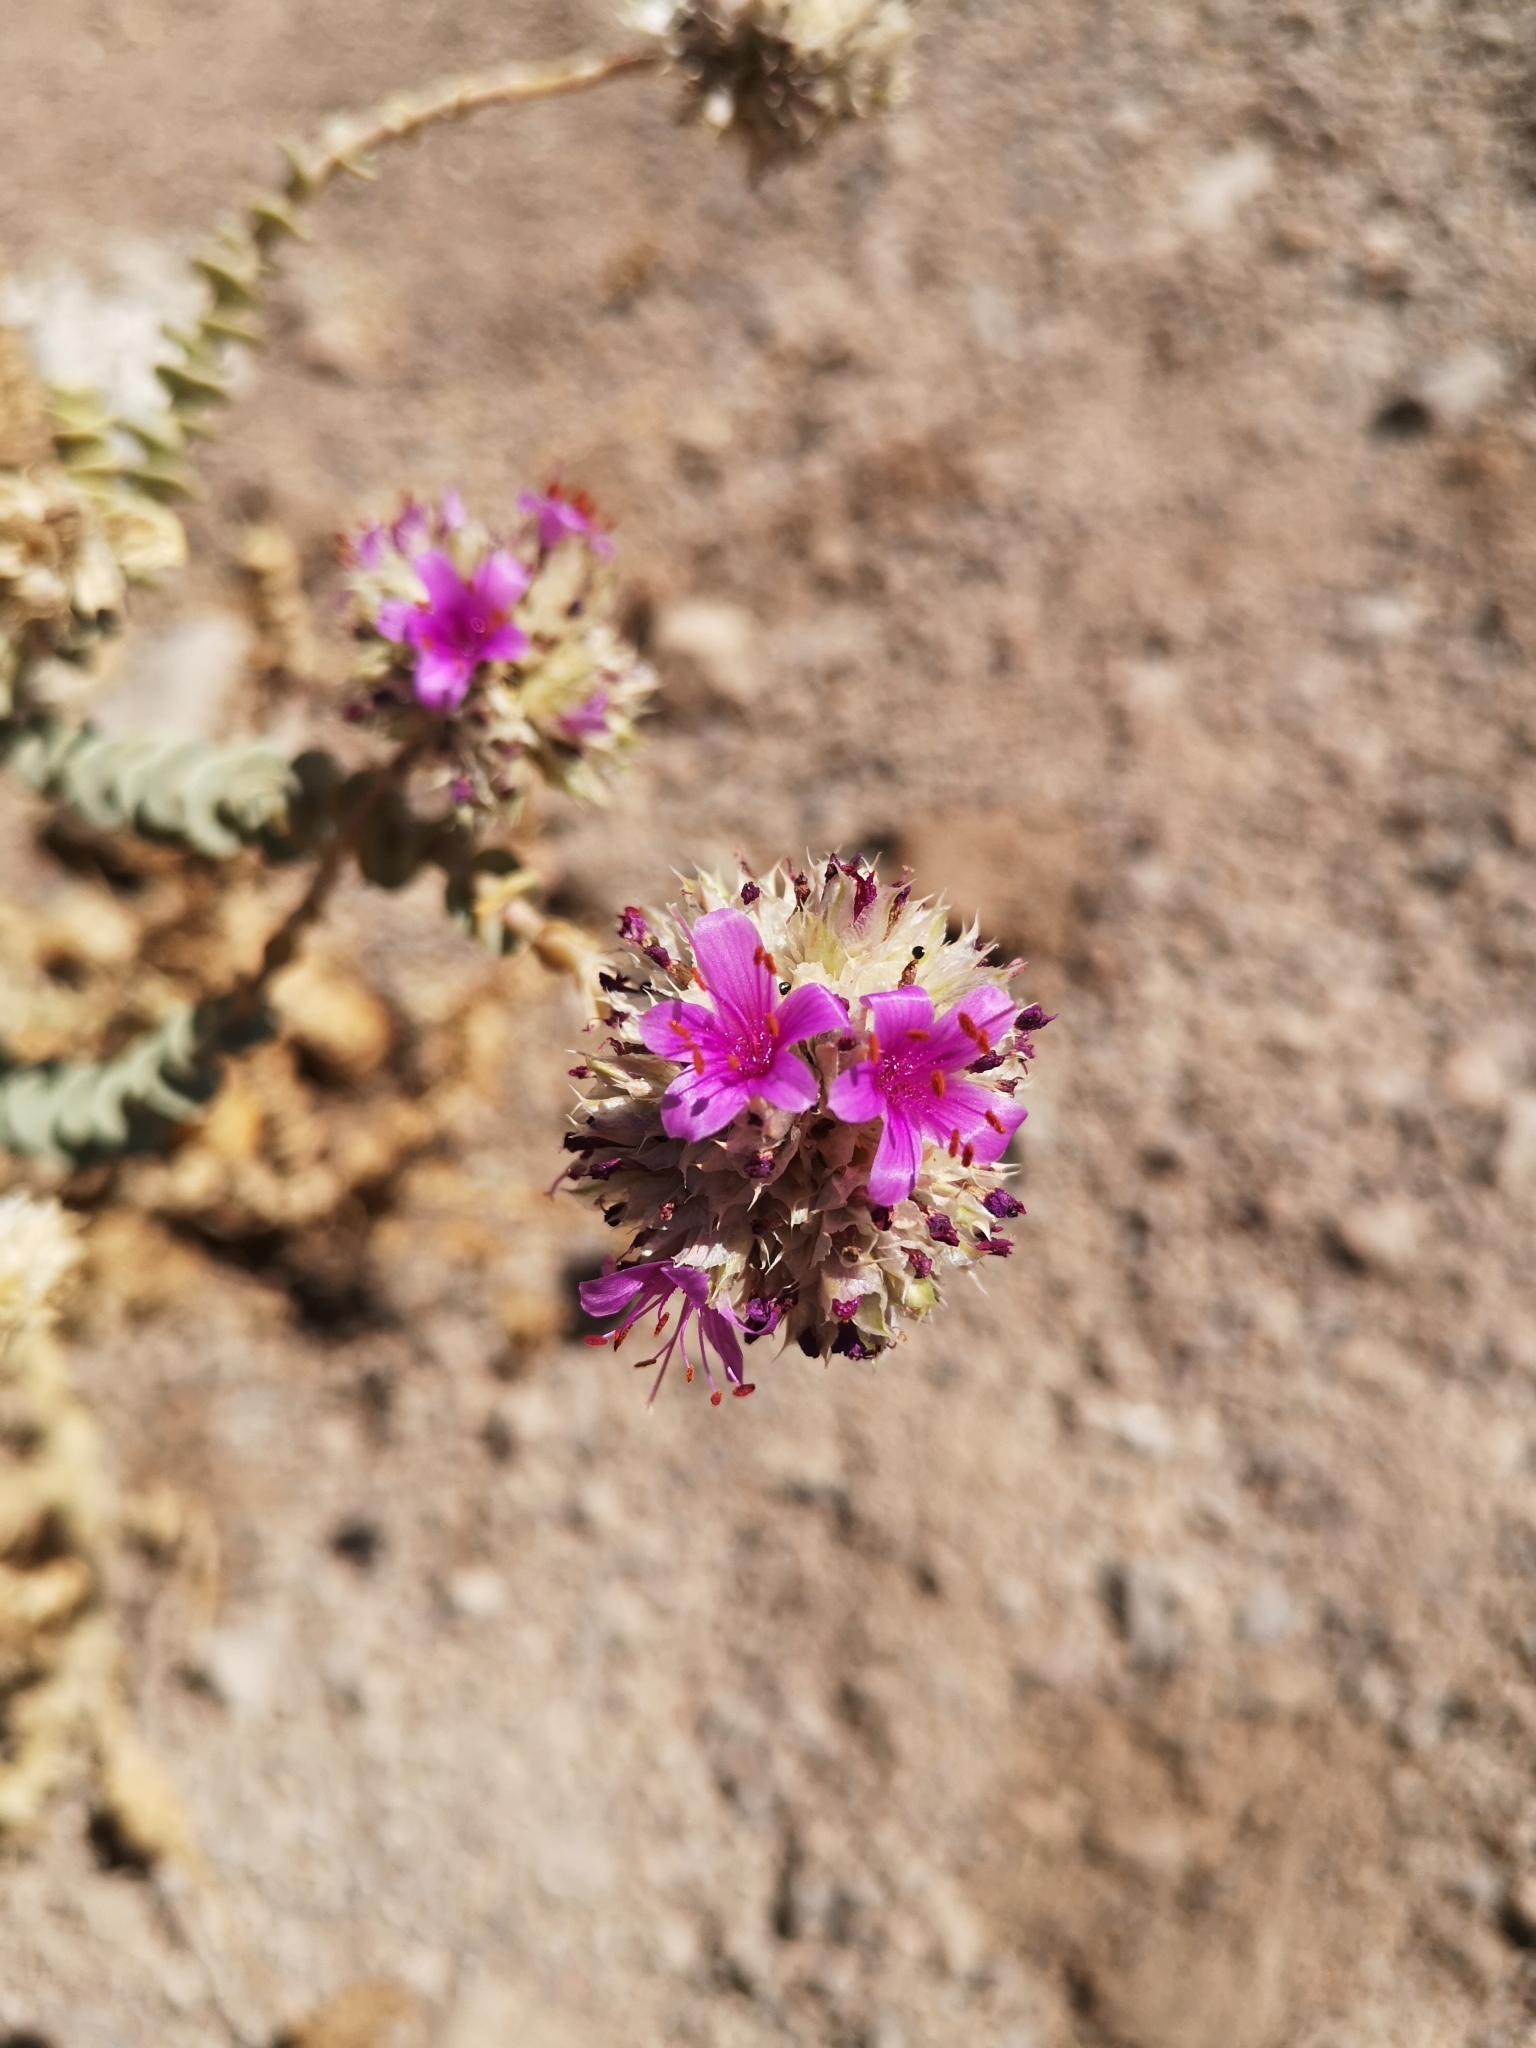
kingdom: Plantae
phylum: Tracheophyta
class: Magnoliopsida
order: Caryophyllales
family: Montiaceae
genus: Philippiamra
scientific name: Philippiamra salsoloides
